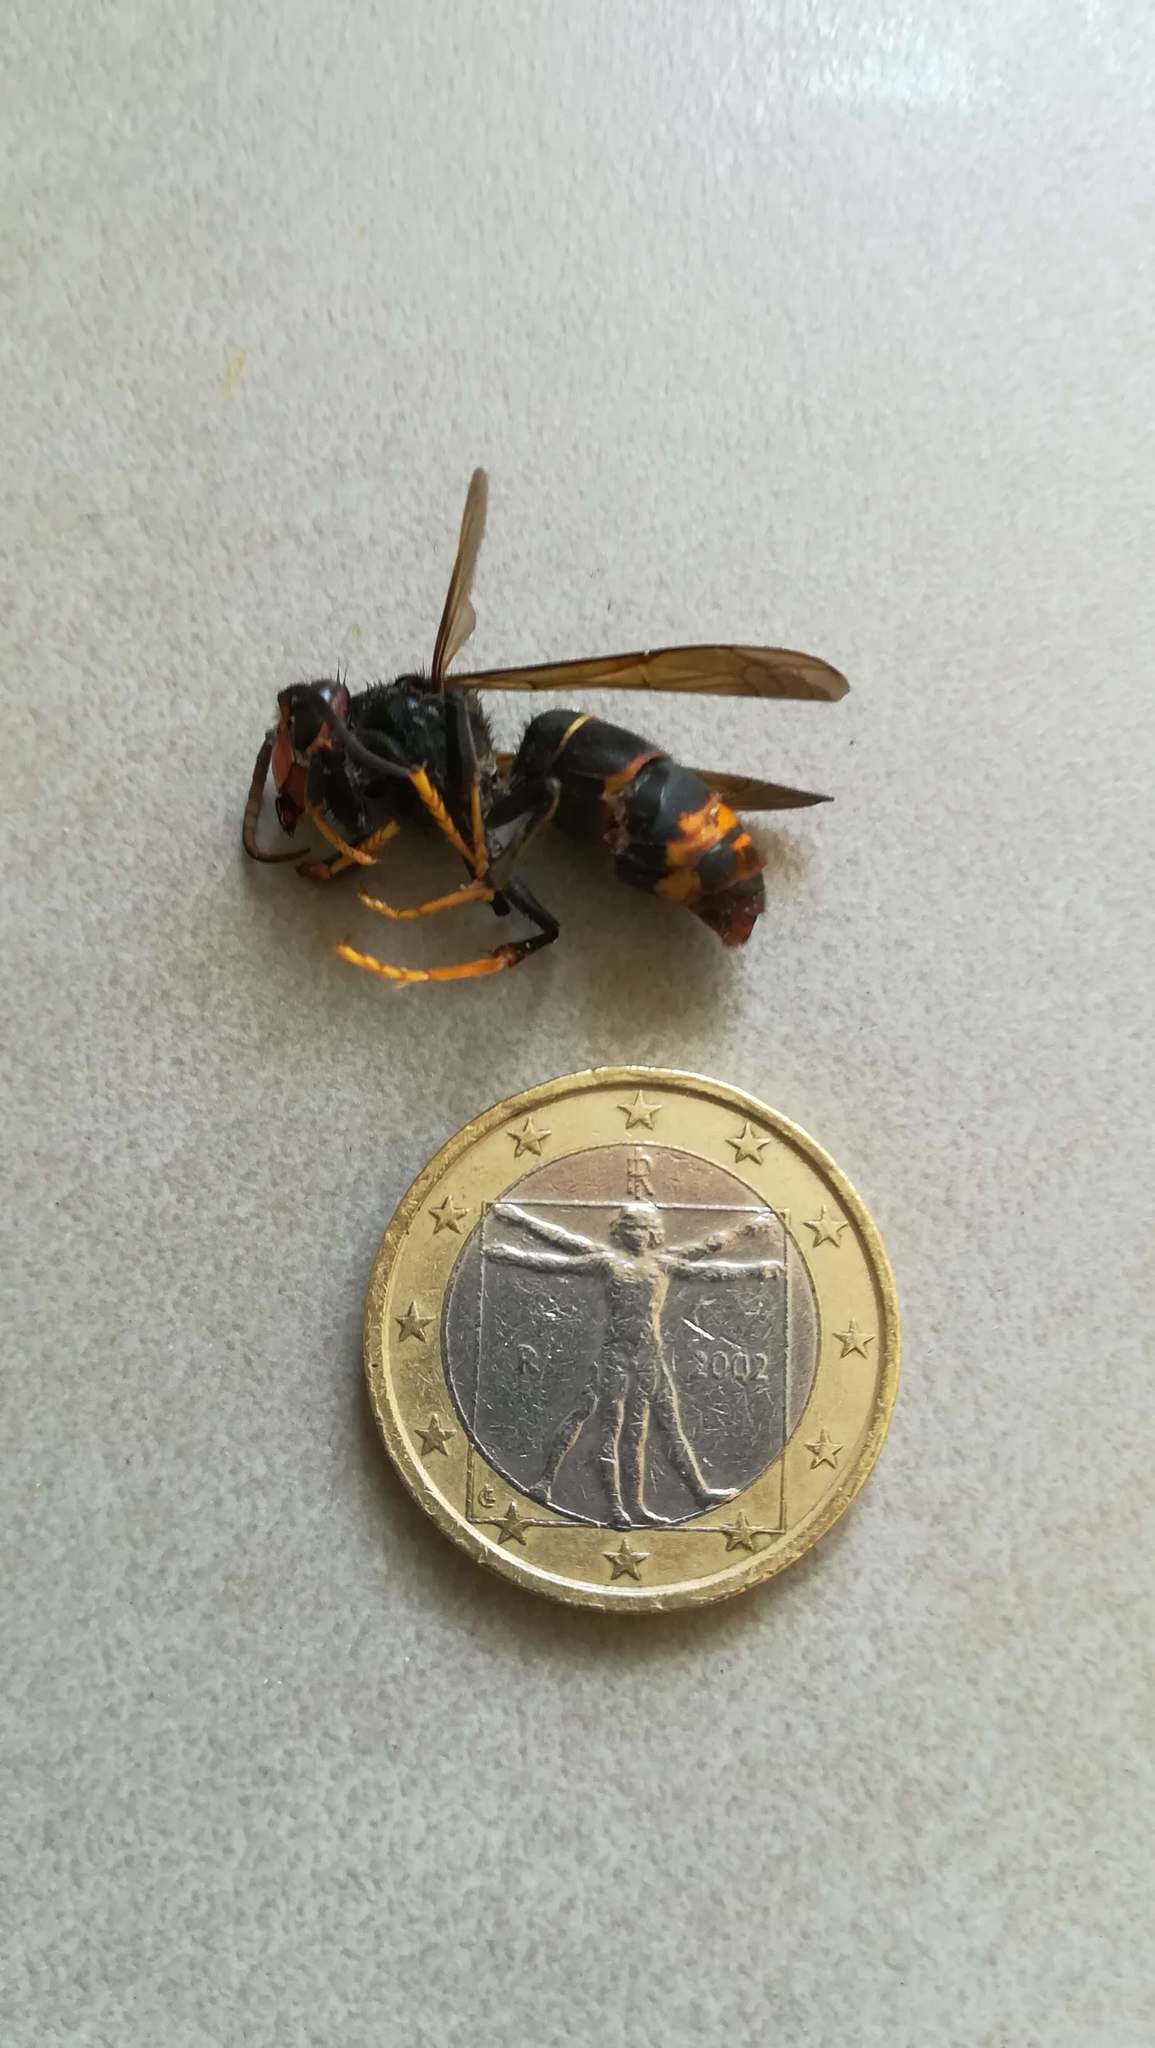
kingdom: Animalia
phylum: Arthropoda
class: Insecta
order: Hymenoptera
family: Vespidae
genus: Vespa
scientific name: Vespa velutina
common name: Asian hornet
